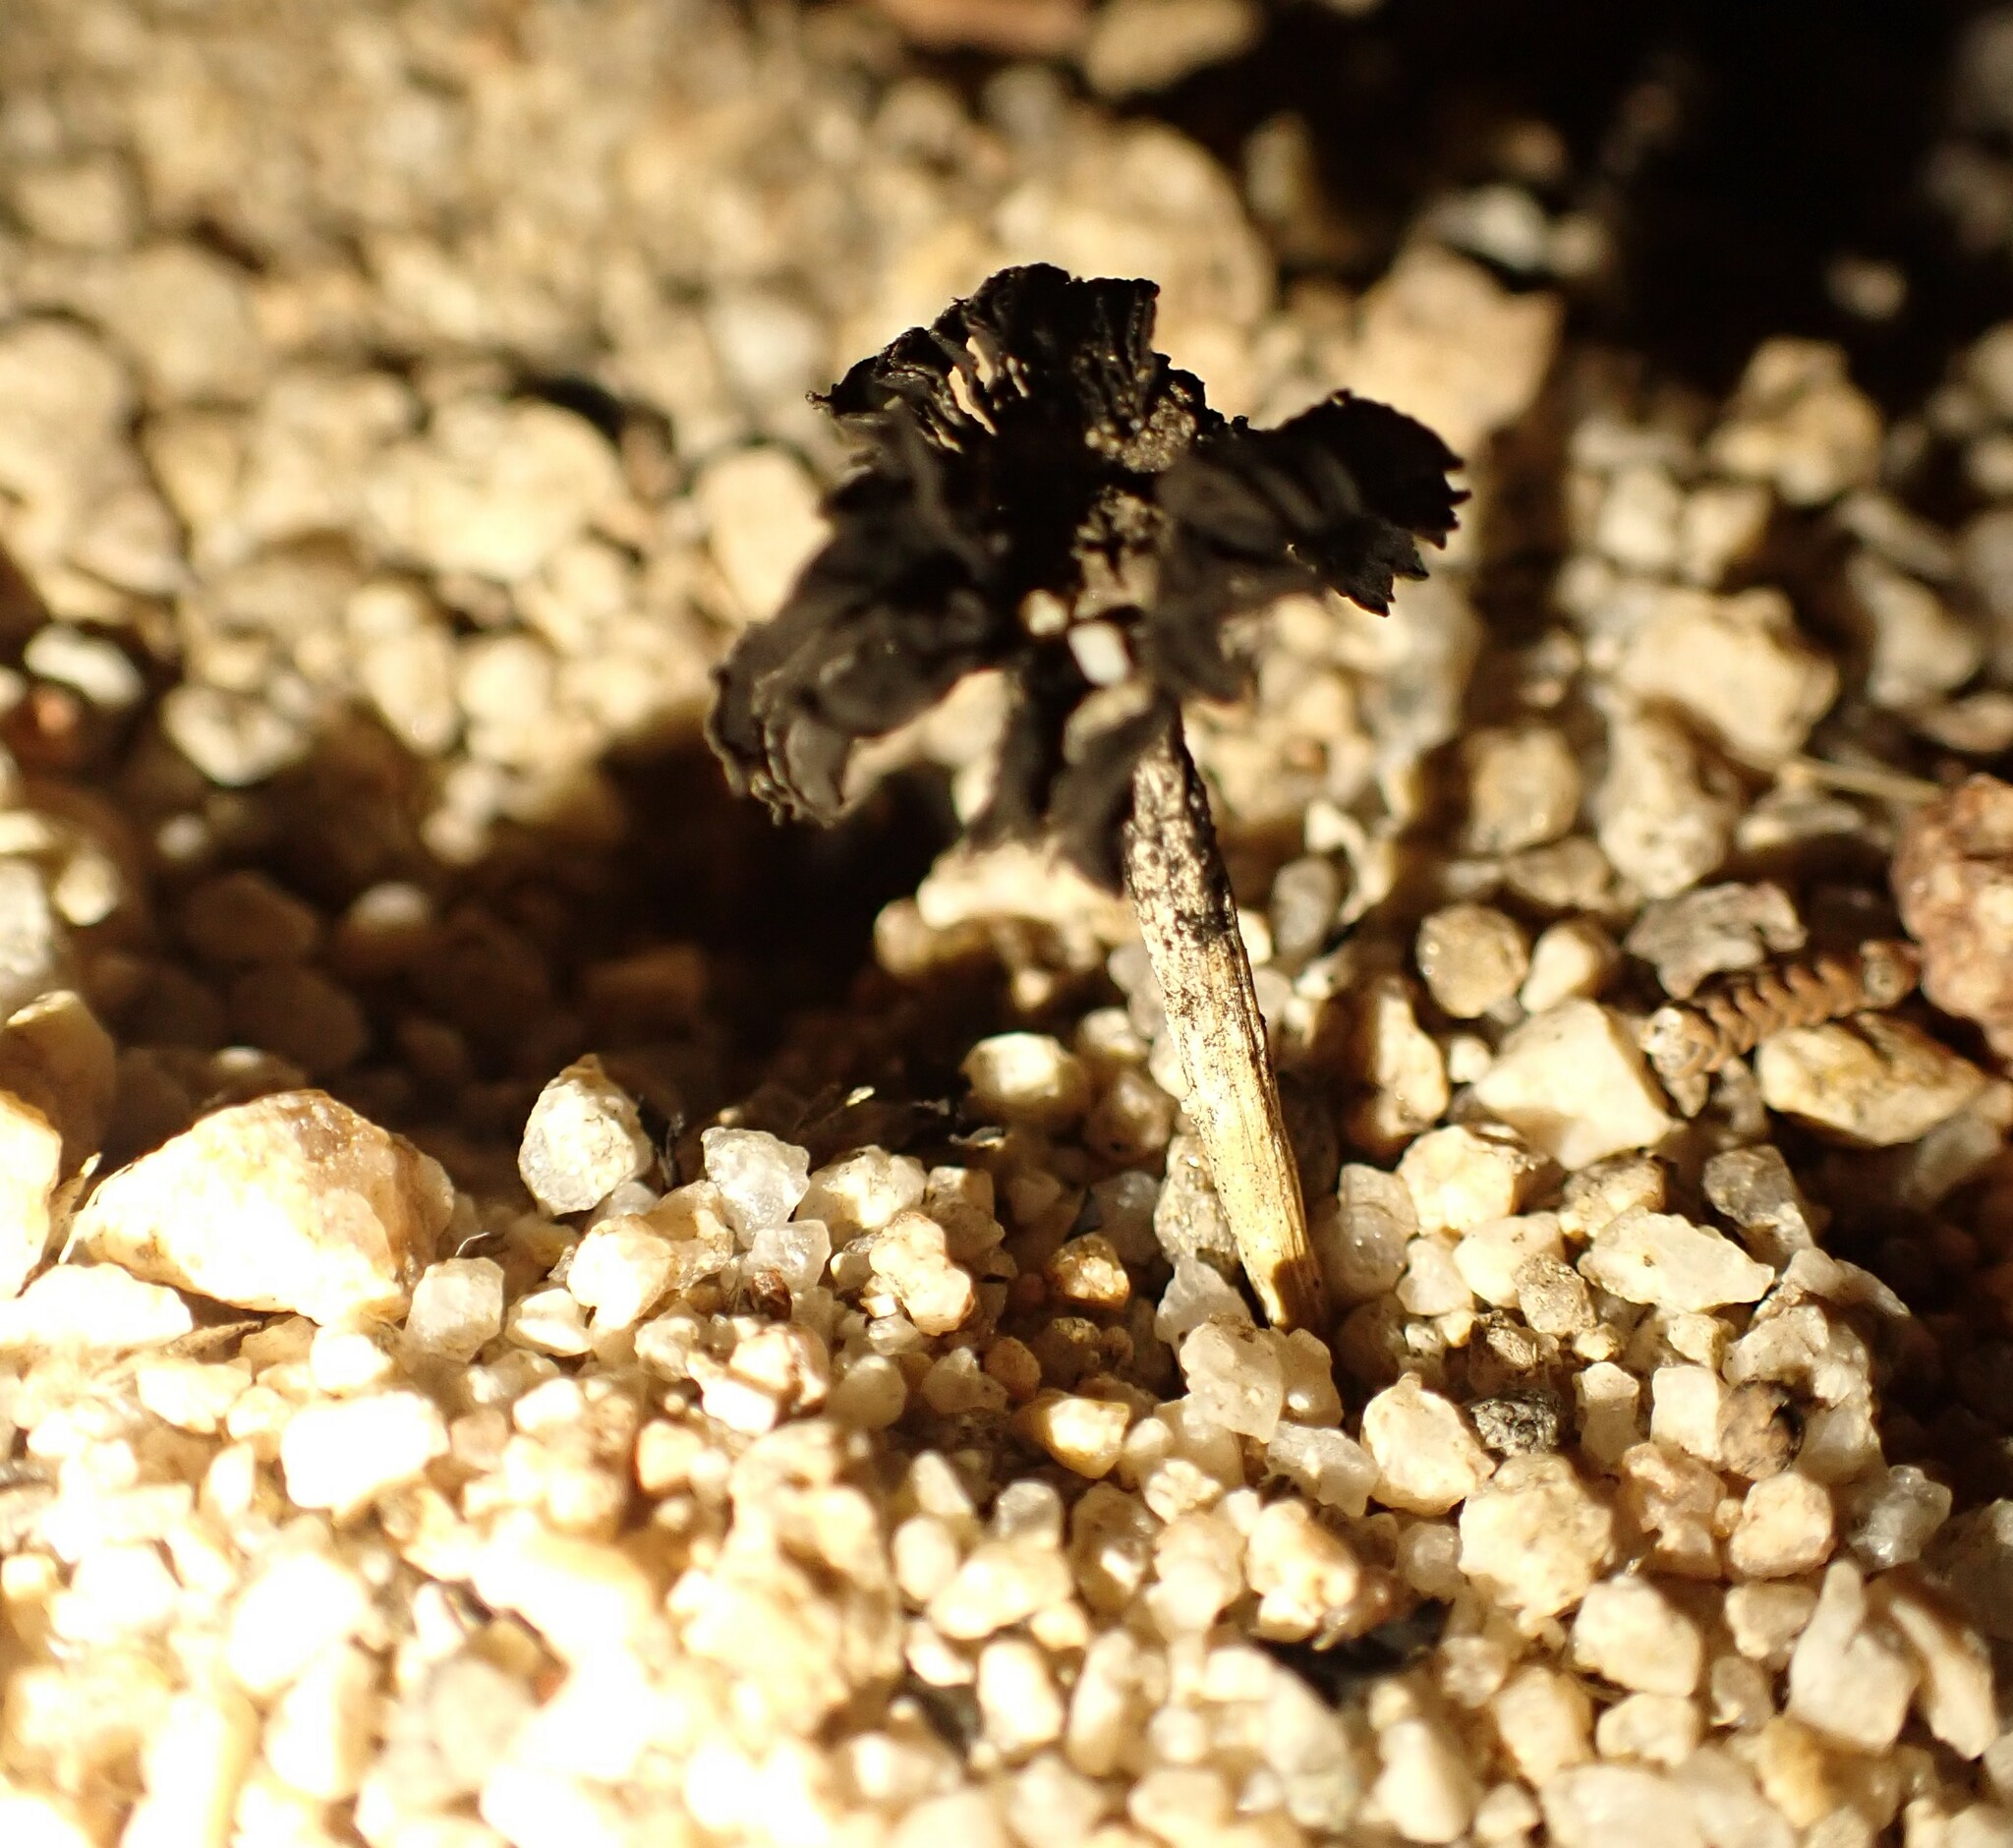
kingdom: Fungi
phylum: Basidiomycota
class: Agaricomycetes
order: Agaricales
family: Agaricaceae
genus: Montagnea
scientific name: Montagnea arenaria
